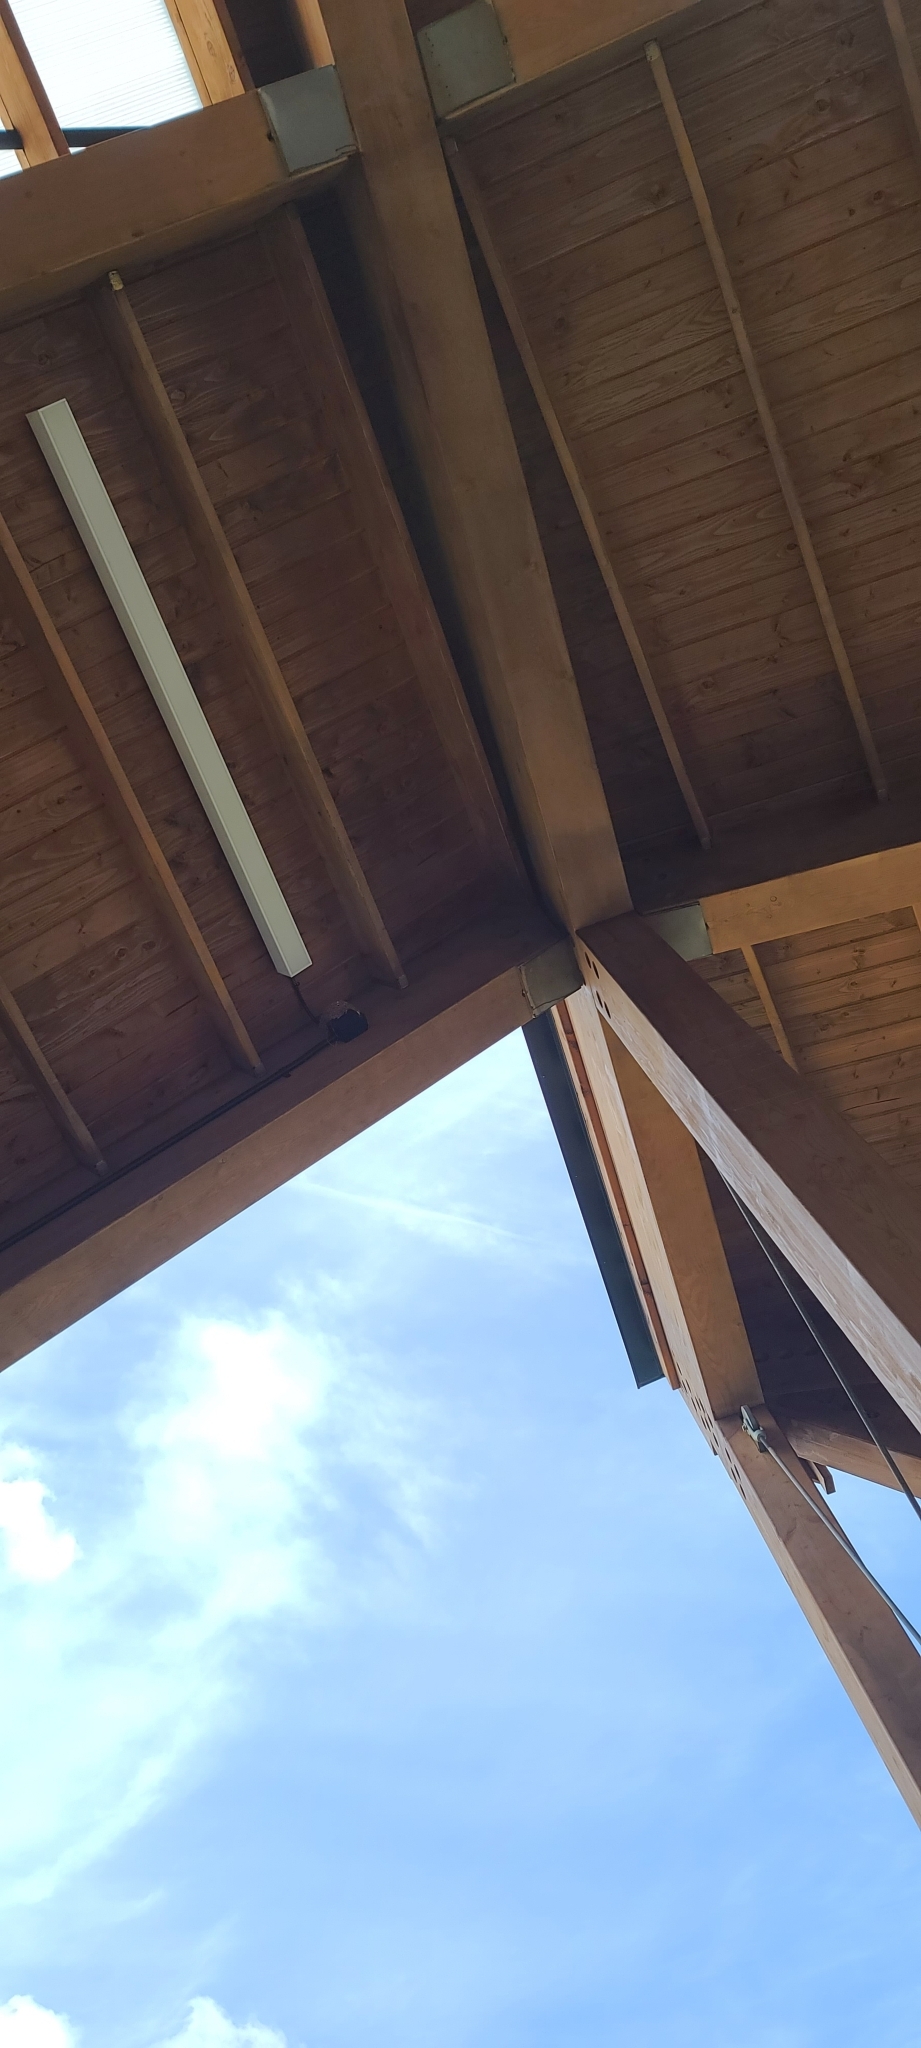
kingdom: Animalia
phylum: Chordata
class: Aves
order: Passeriformes
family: Hirundinidae
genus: Hirundo
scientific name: Hirundo rustica
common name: Barn swallow
